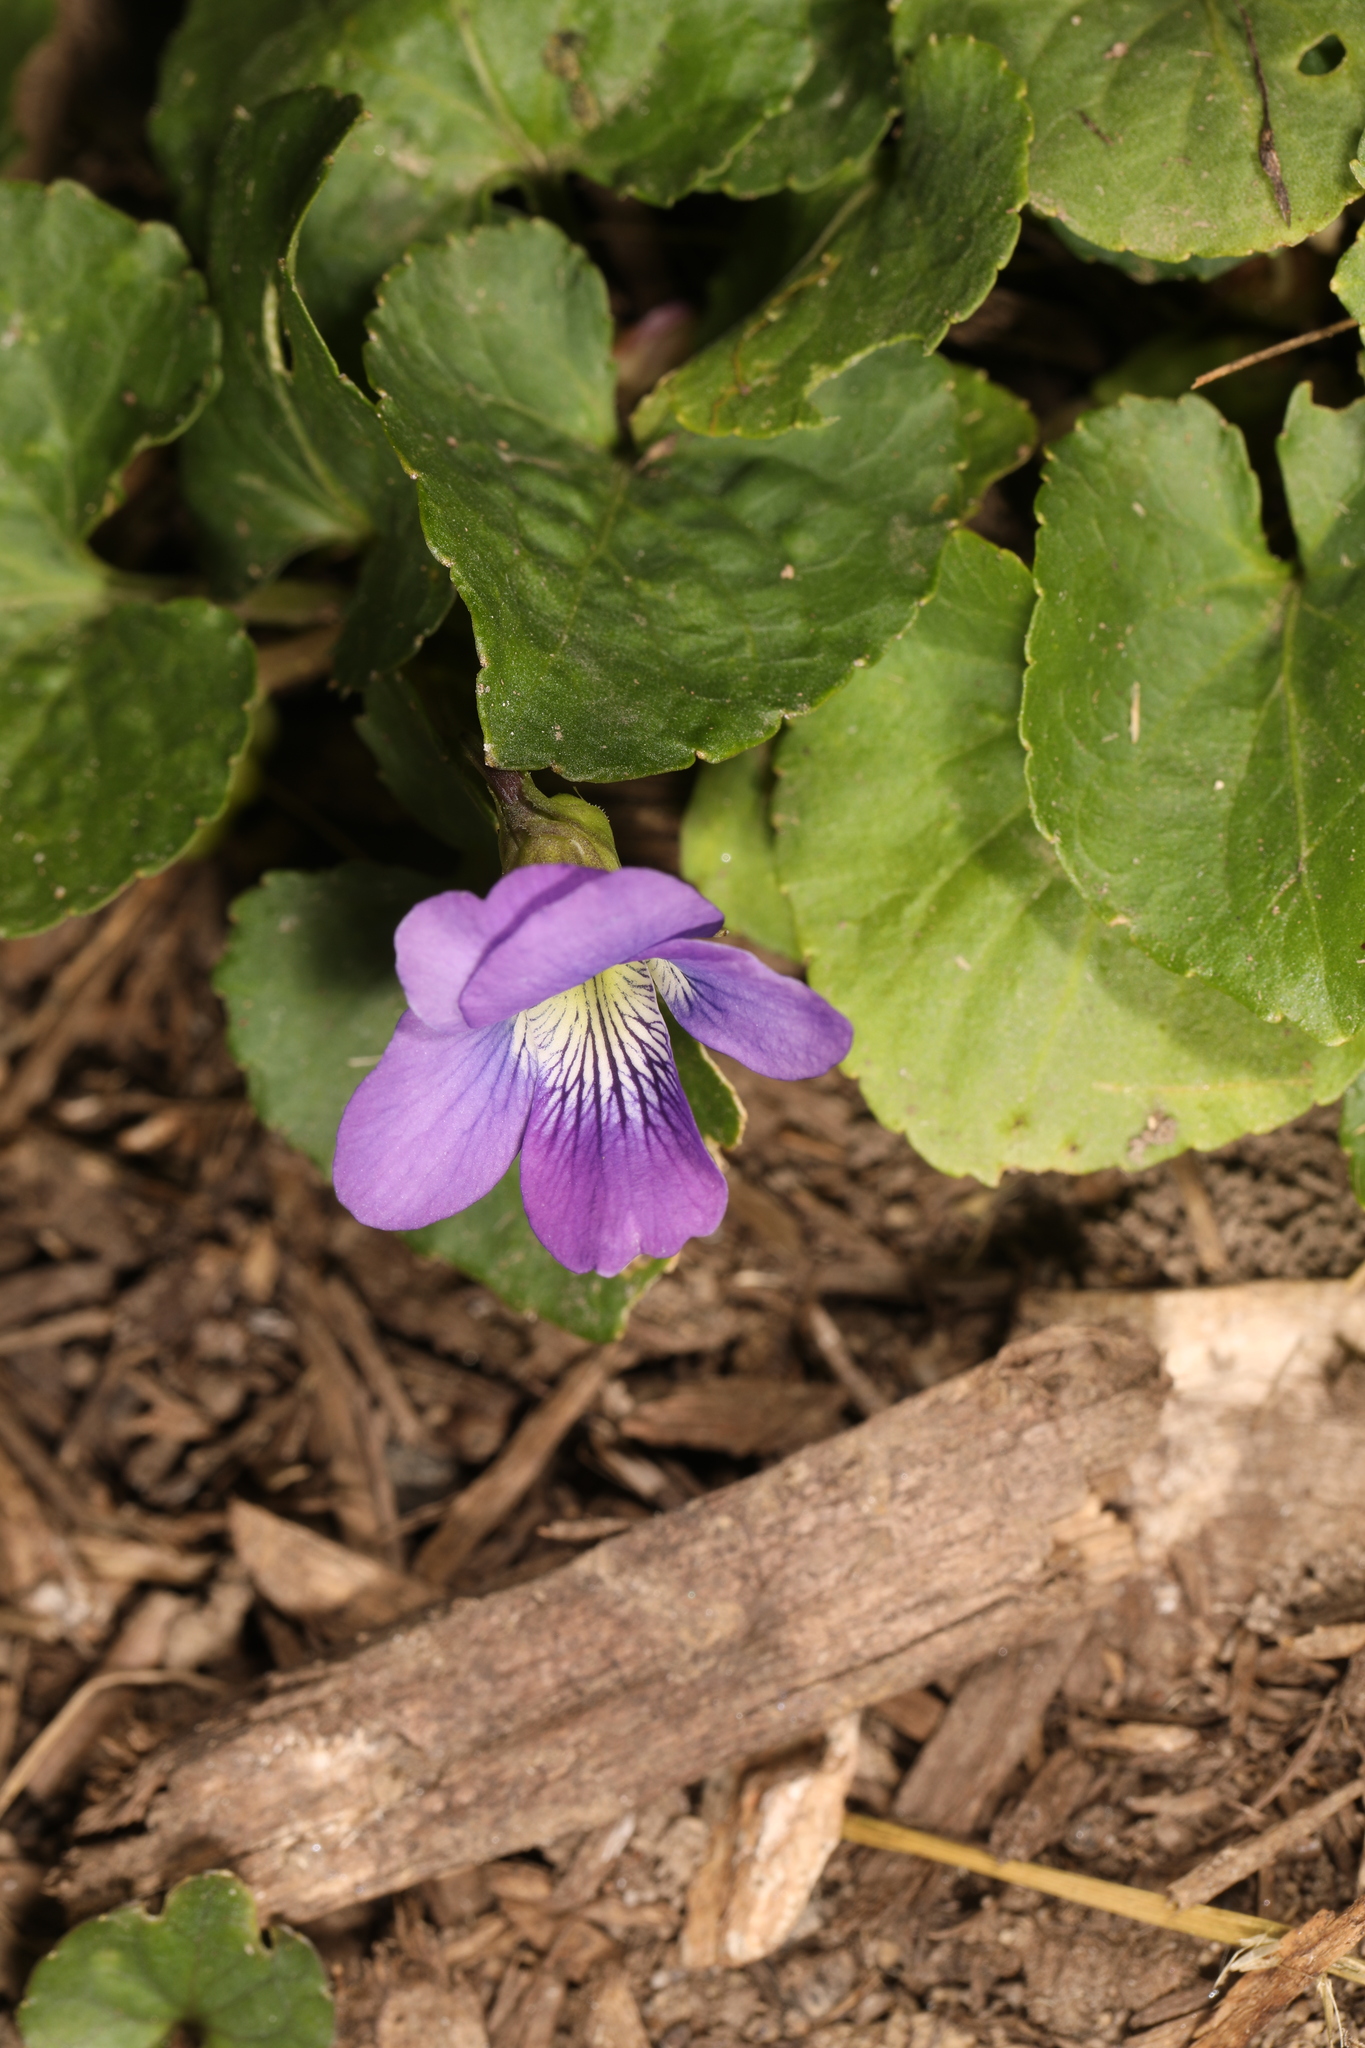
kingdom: Plantae
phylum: Tracheophyta
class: Magnoliopsida
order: Malpighiales
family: Violaceae
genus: Viola
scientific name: Viola sororia
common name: Dooryard violet
